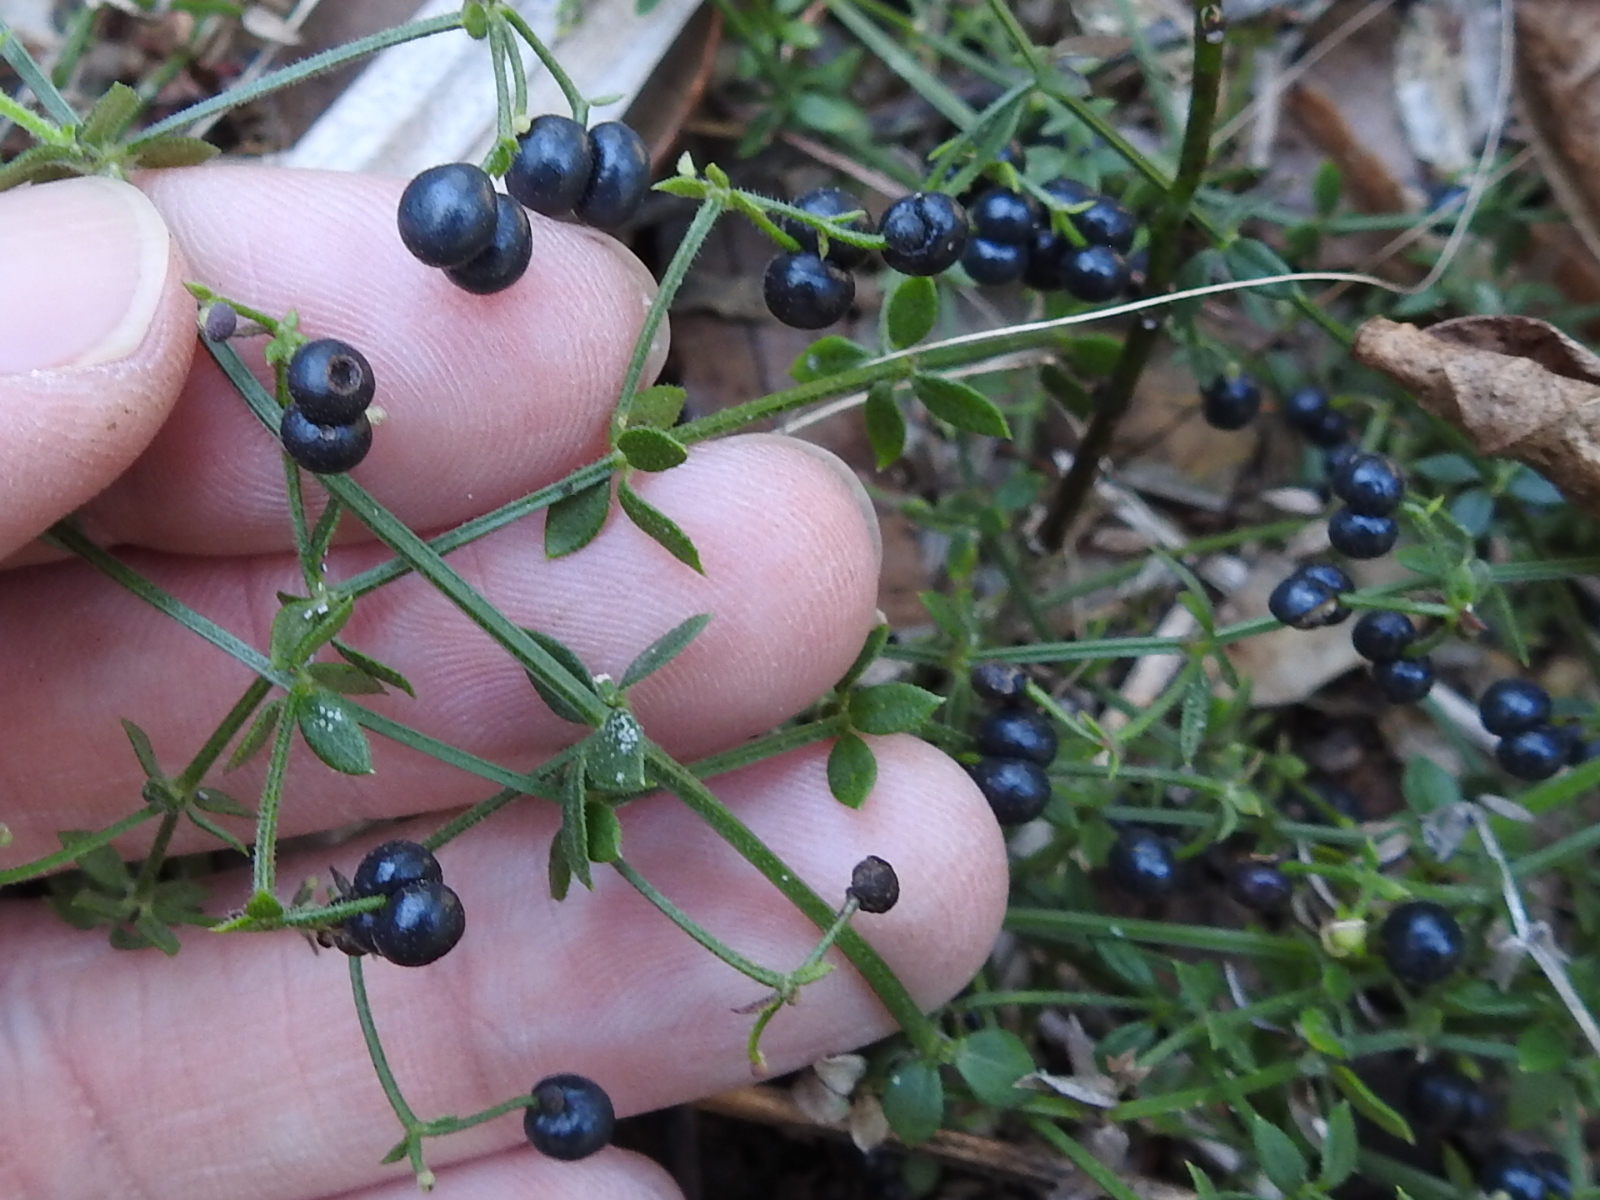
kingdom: Plantae
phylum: Tracheophyta
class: Magnoliopsida
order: Gentianales
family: Rubiaceae
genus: Galium
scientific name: Galium bermudense
